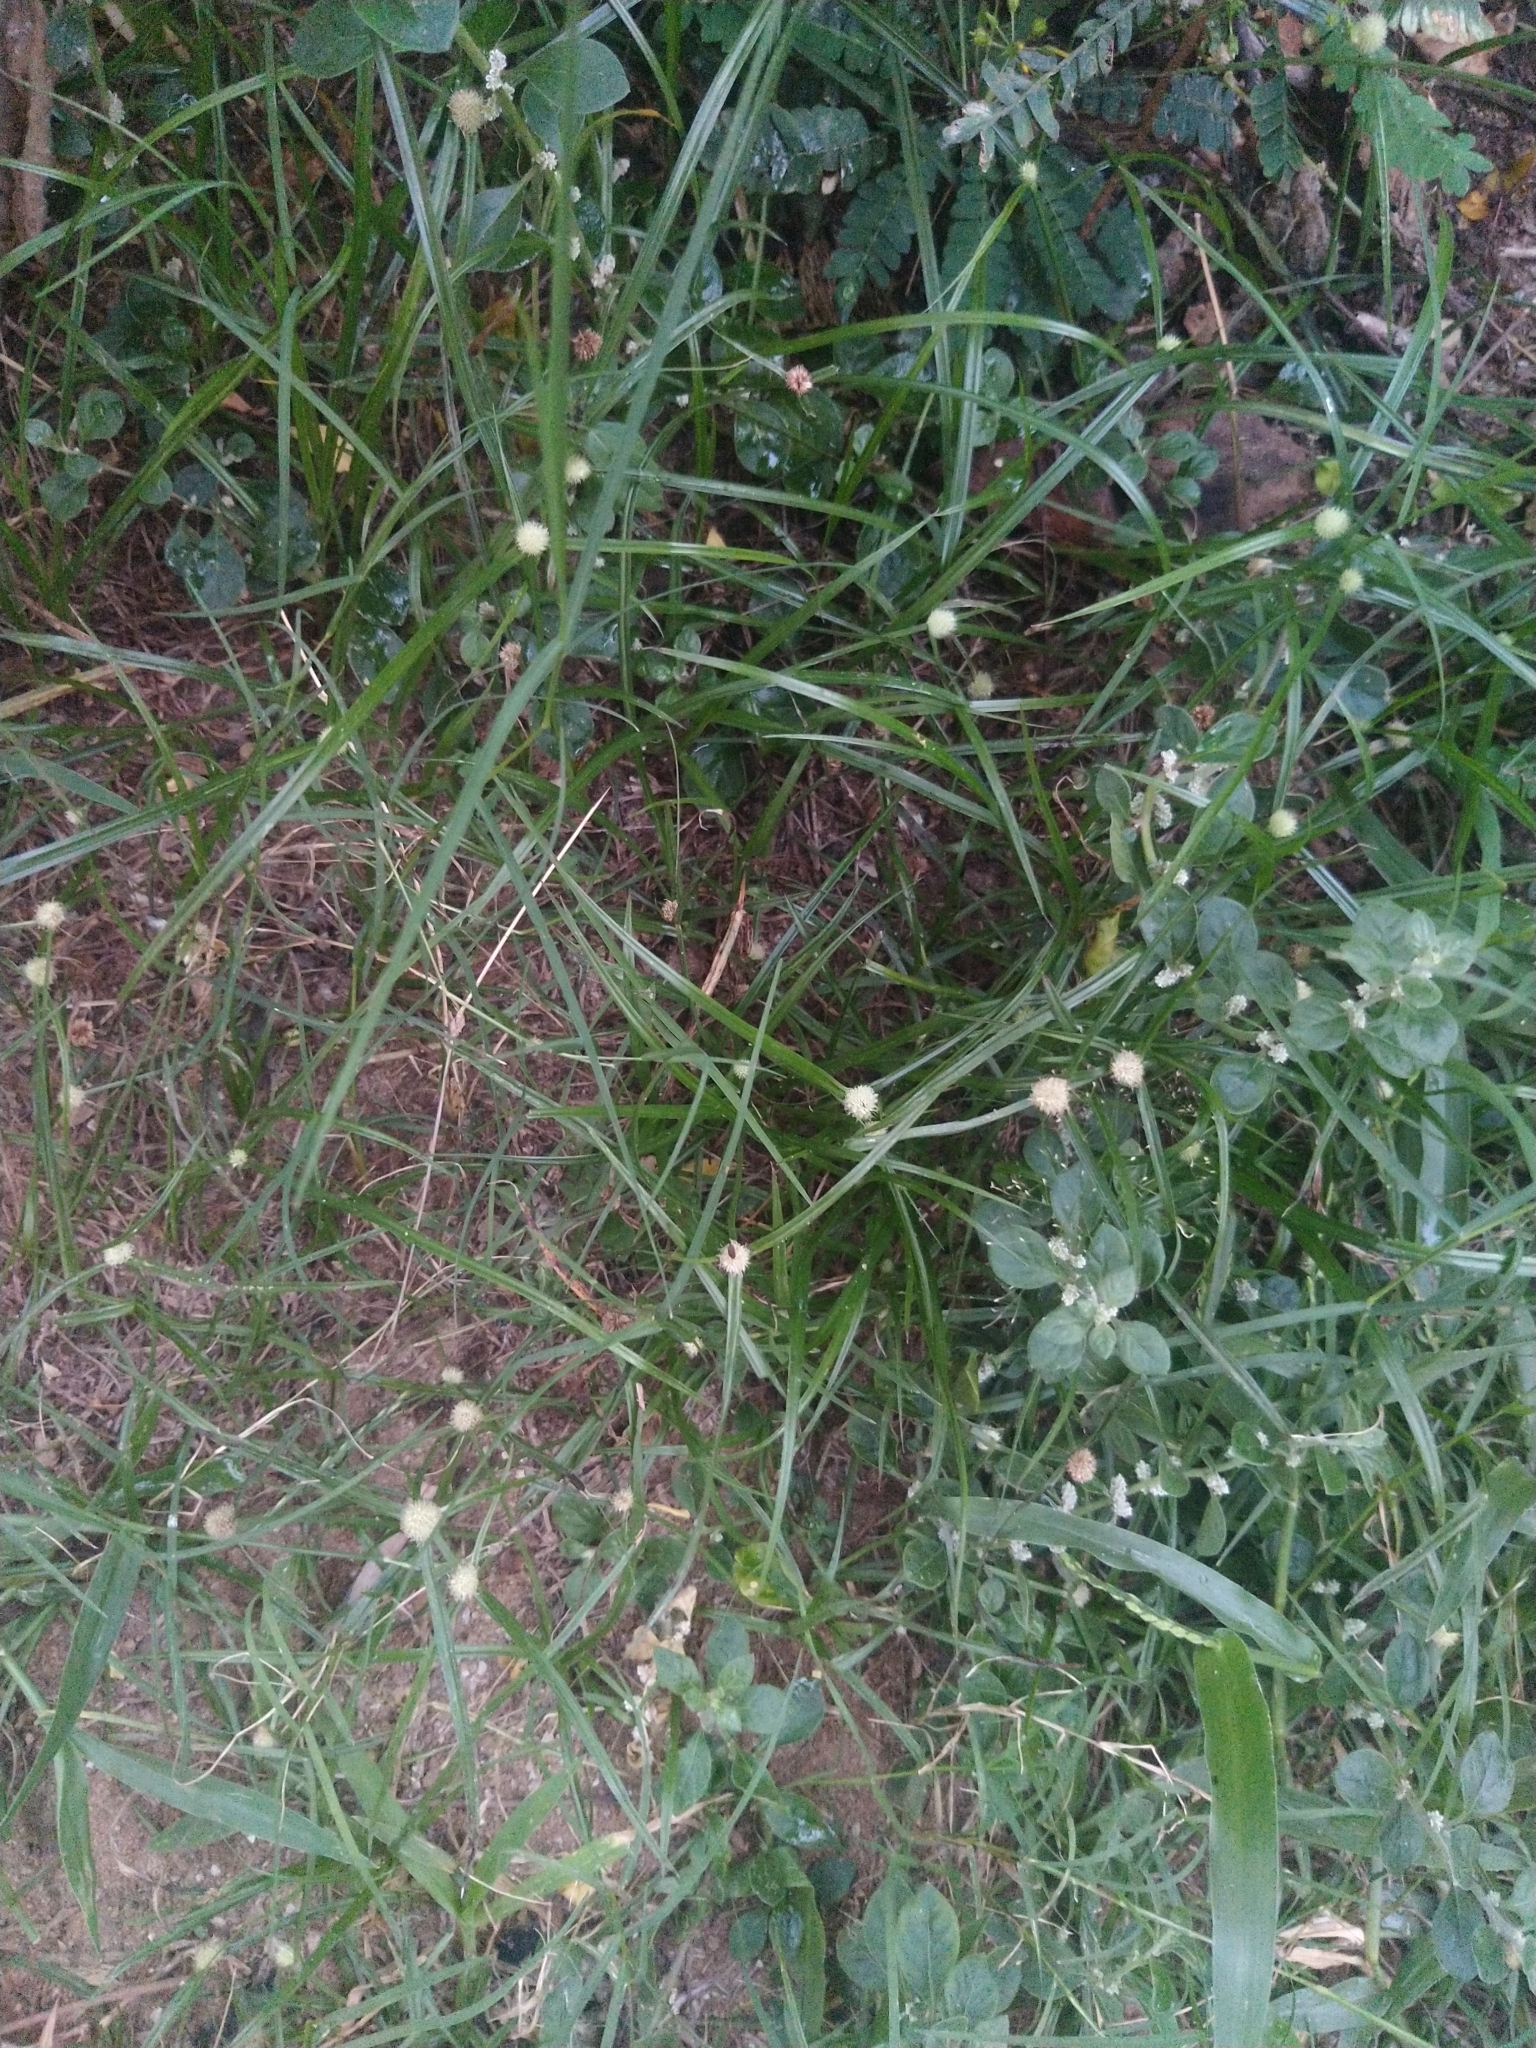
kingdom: Plantae
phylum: Tracheophyta
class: Liliopsida
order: Poales
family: Cyperaceae
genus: Cyperus
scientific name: Cyperus mindorensis
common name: Flatsedge
